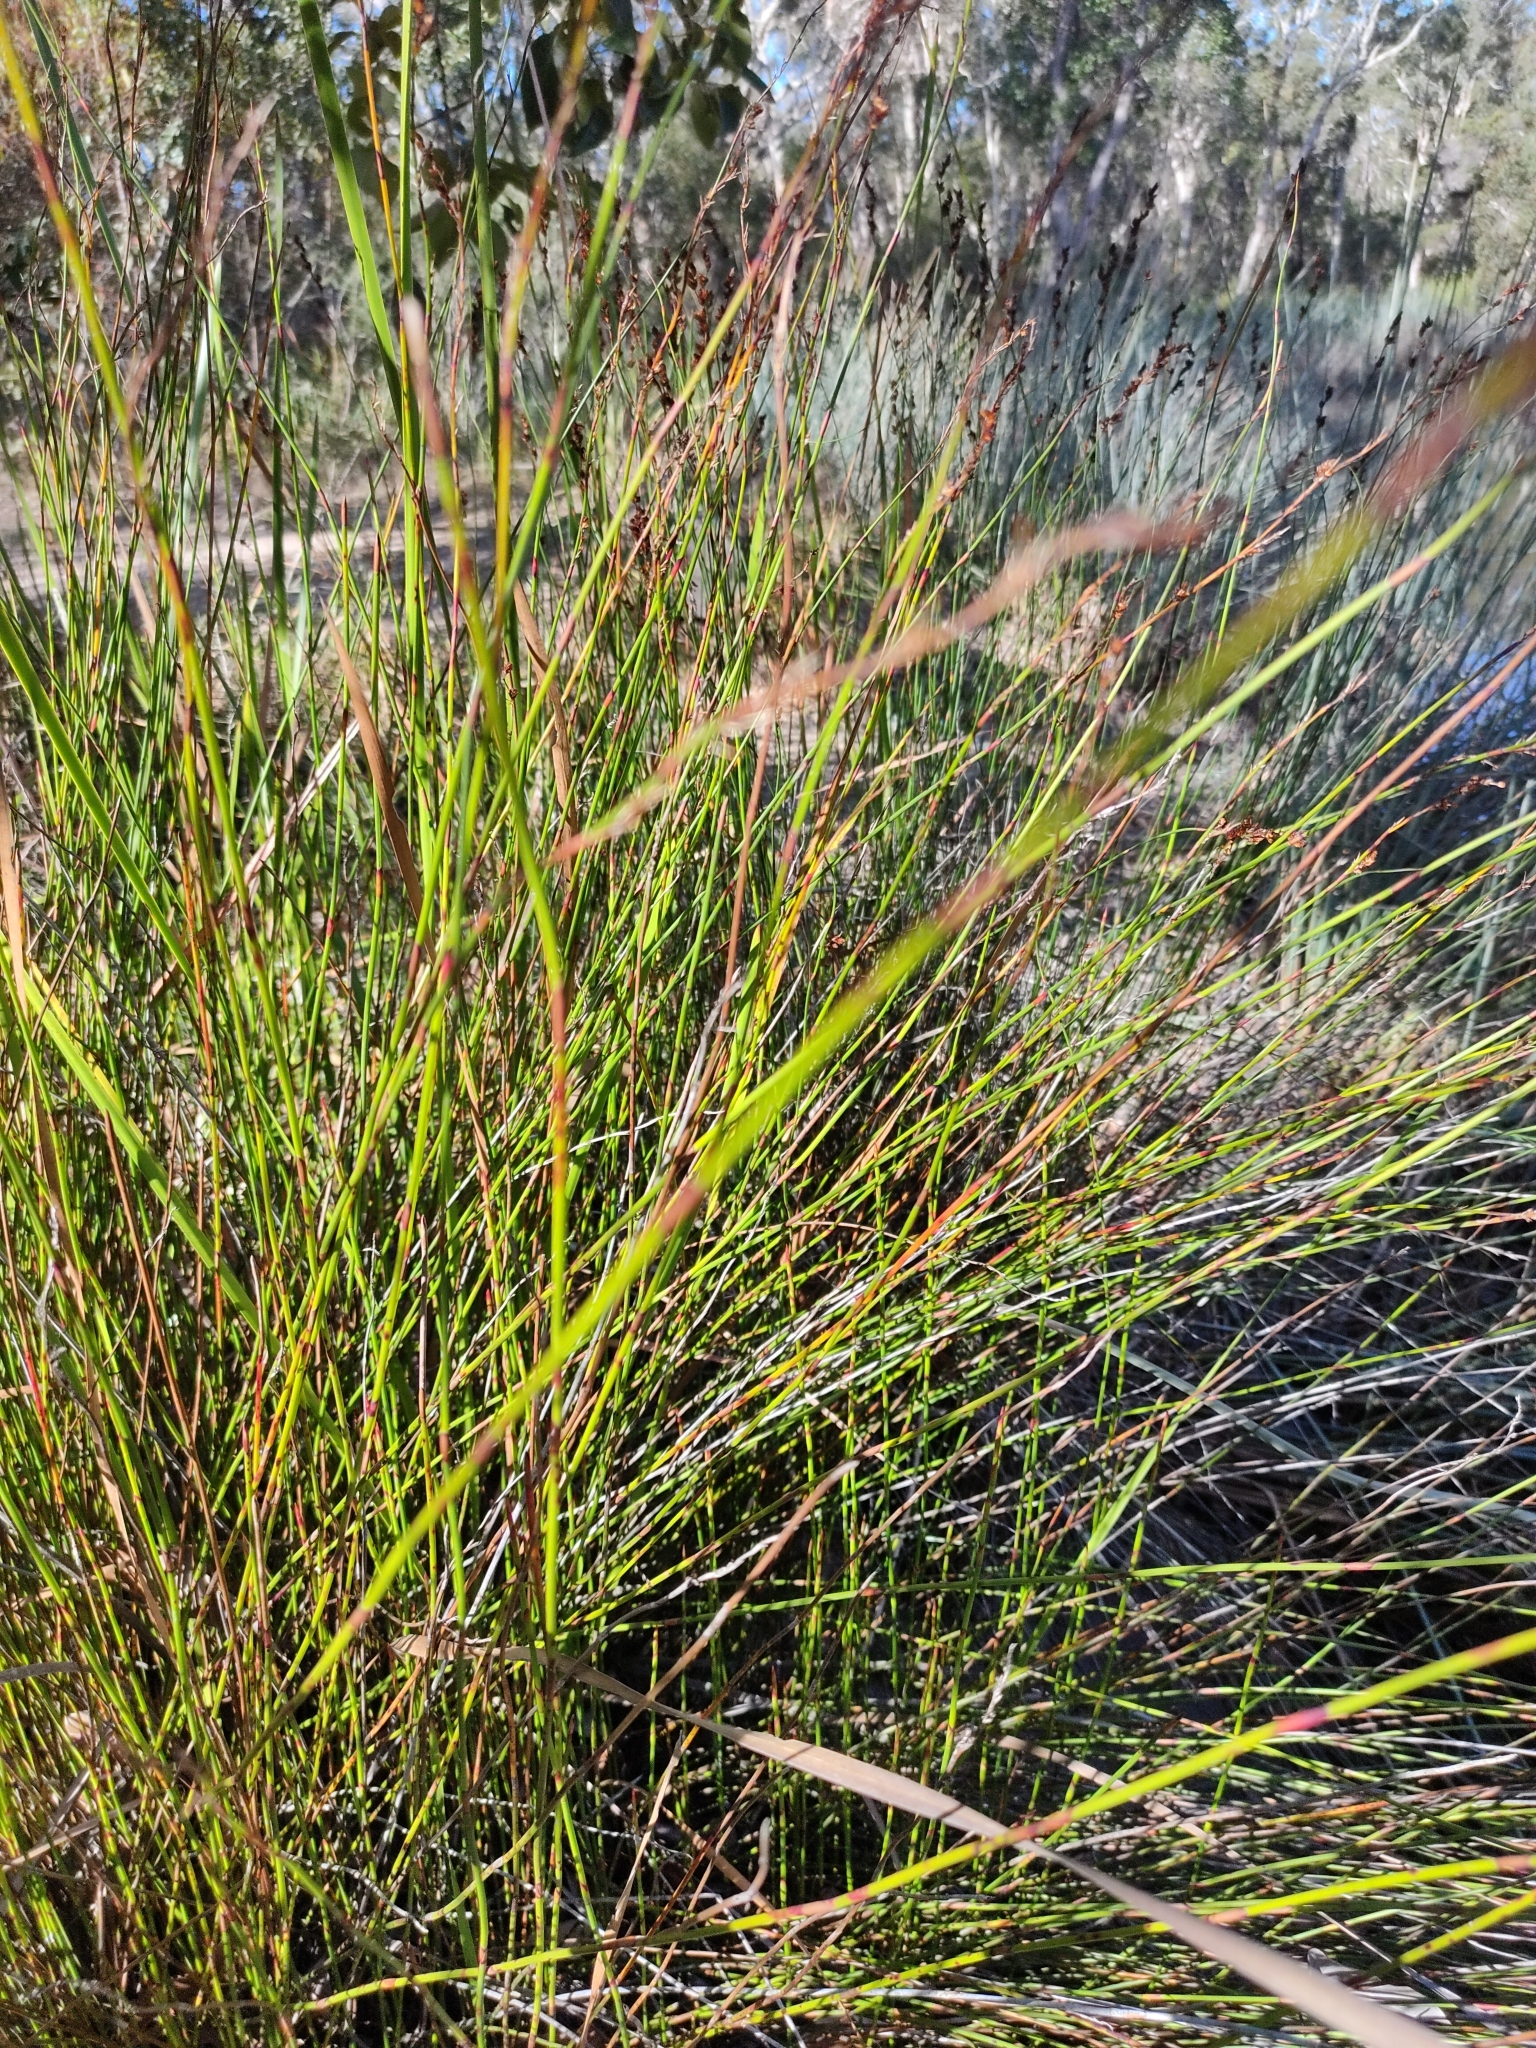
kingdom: Plantae
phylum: Tracheophyta
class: Liliopsida
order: Poales
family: Restionaceae
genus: Baloskion
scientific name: Baloskion pallens
